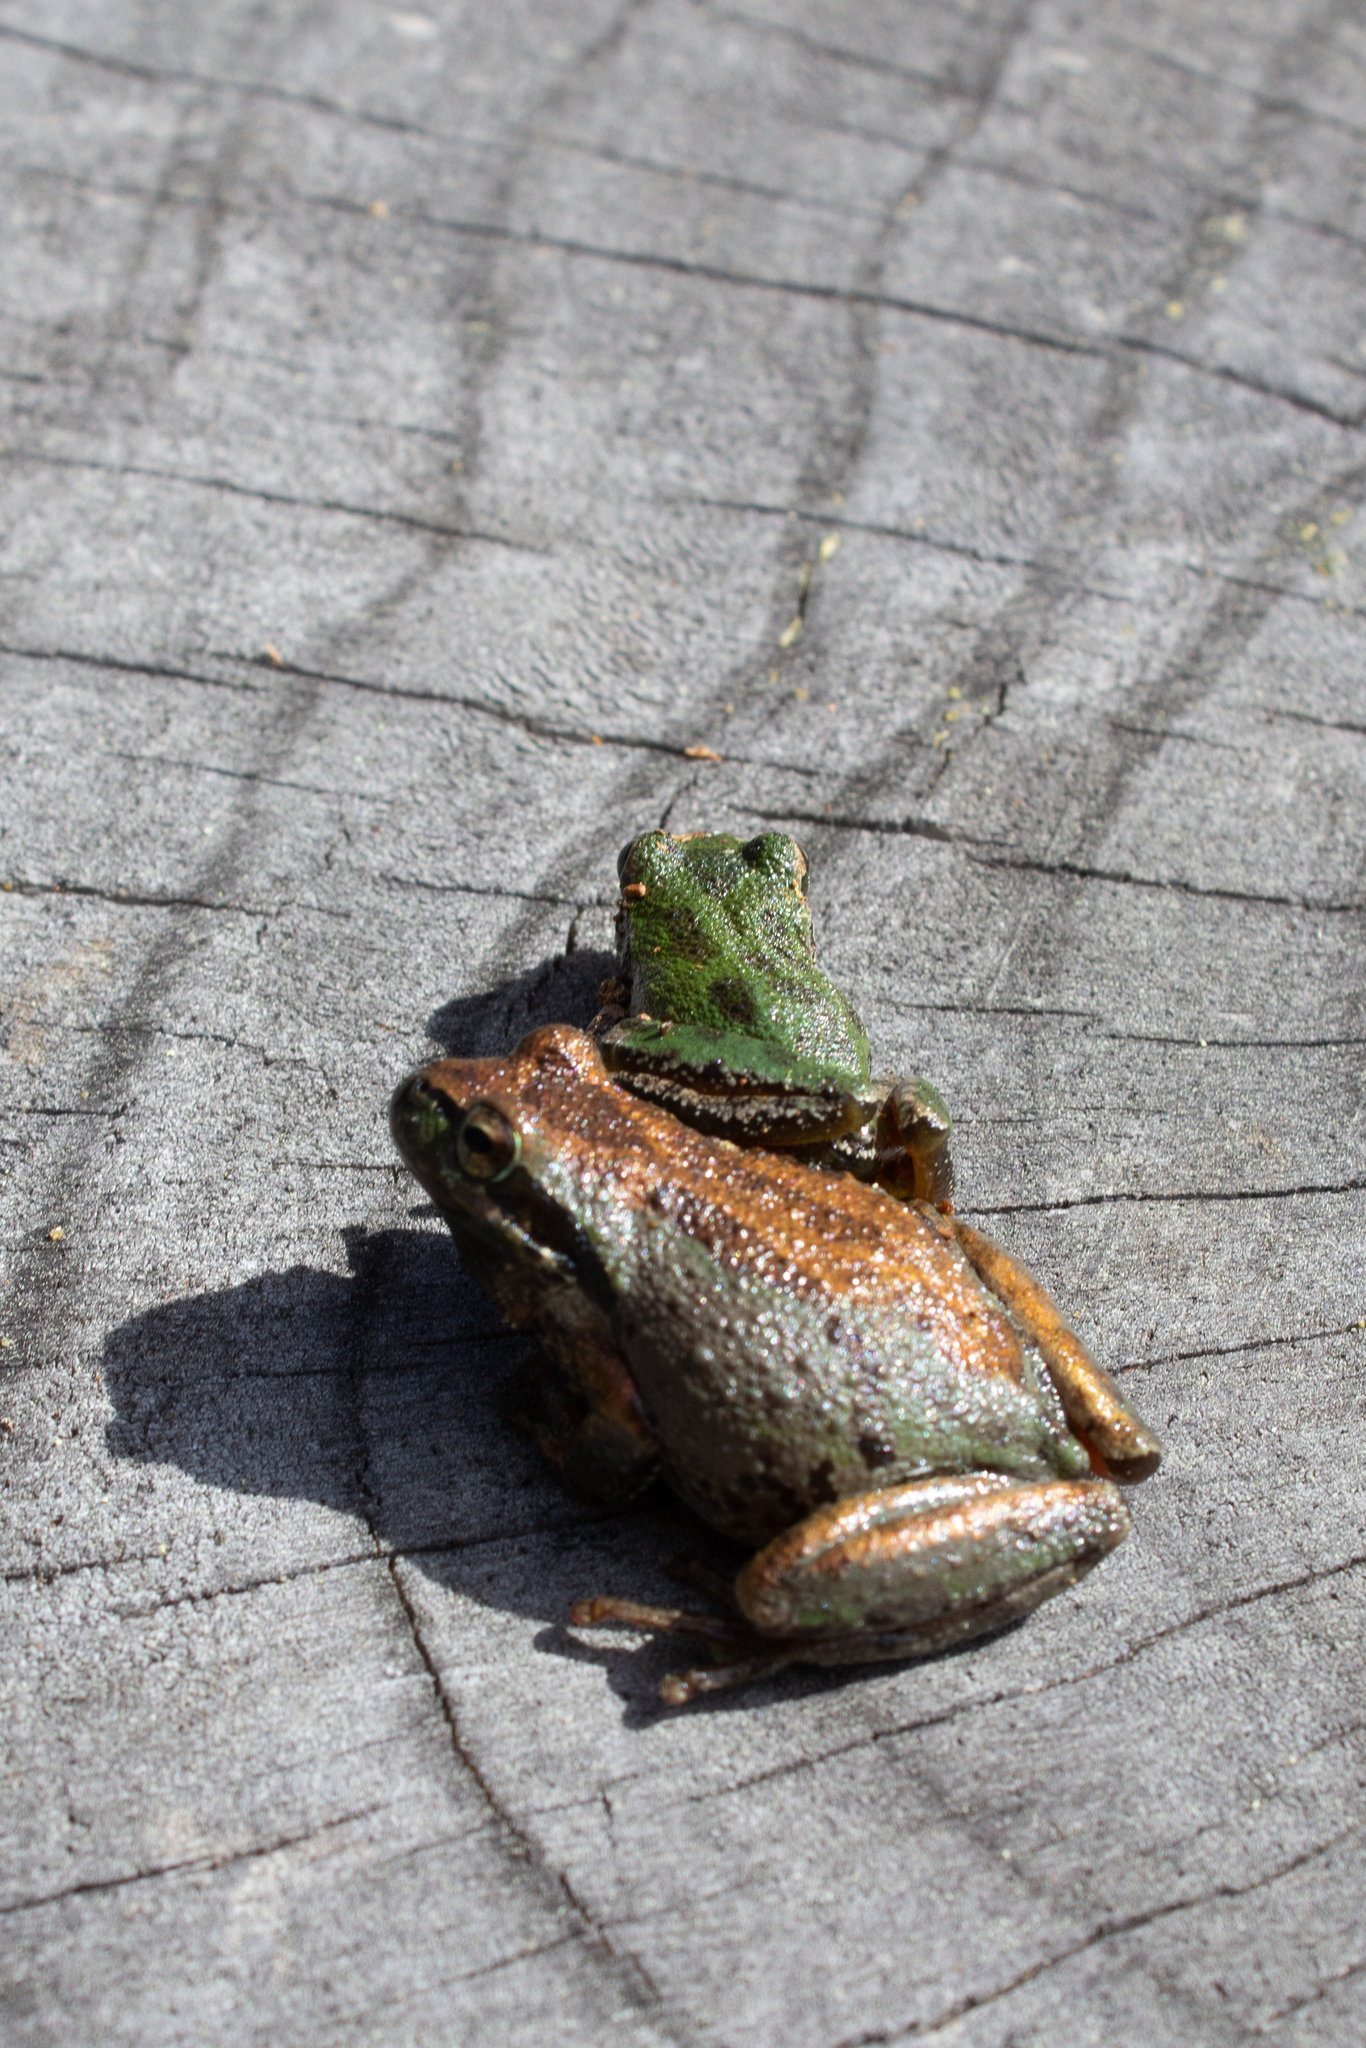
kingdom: Animalia
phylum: Chordata
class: Amphibia
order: Anura
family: Hylidae
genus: Pseudacris
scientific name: Pseudacris regilla
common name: Pacific chorus frog
